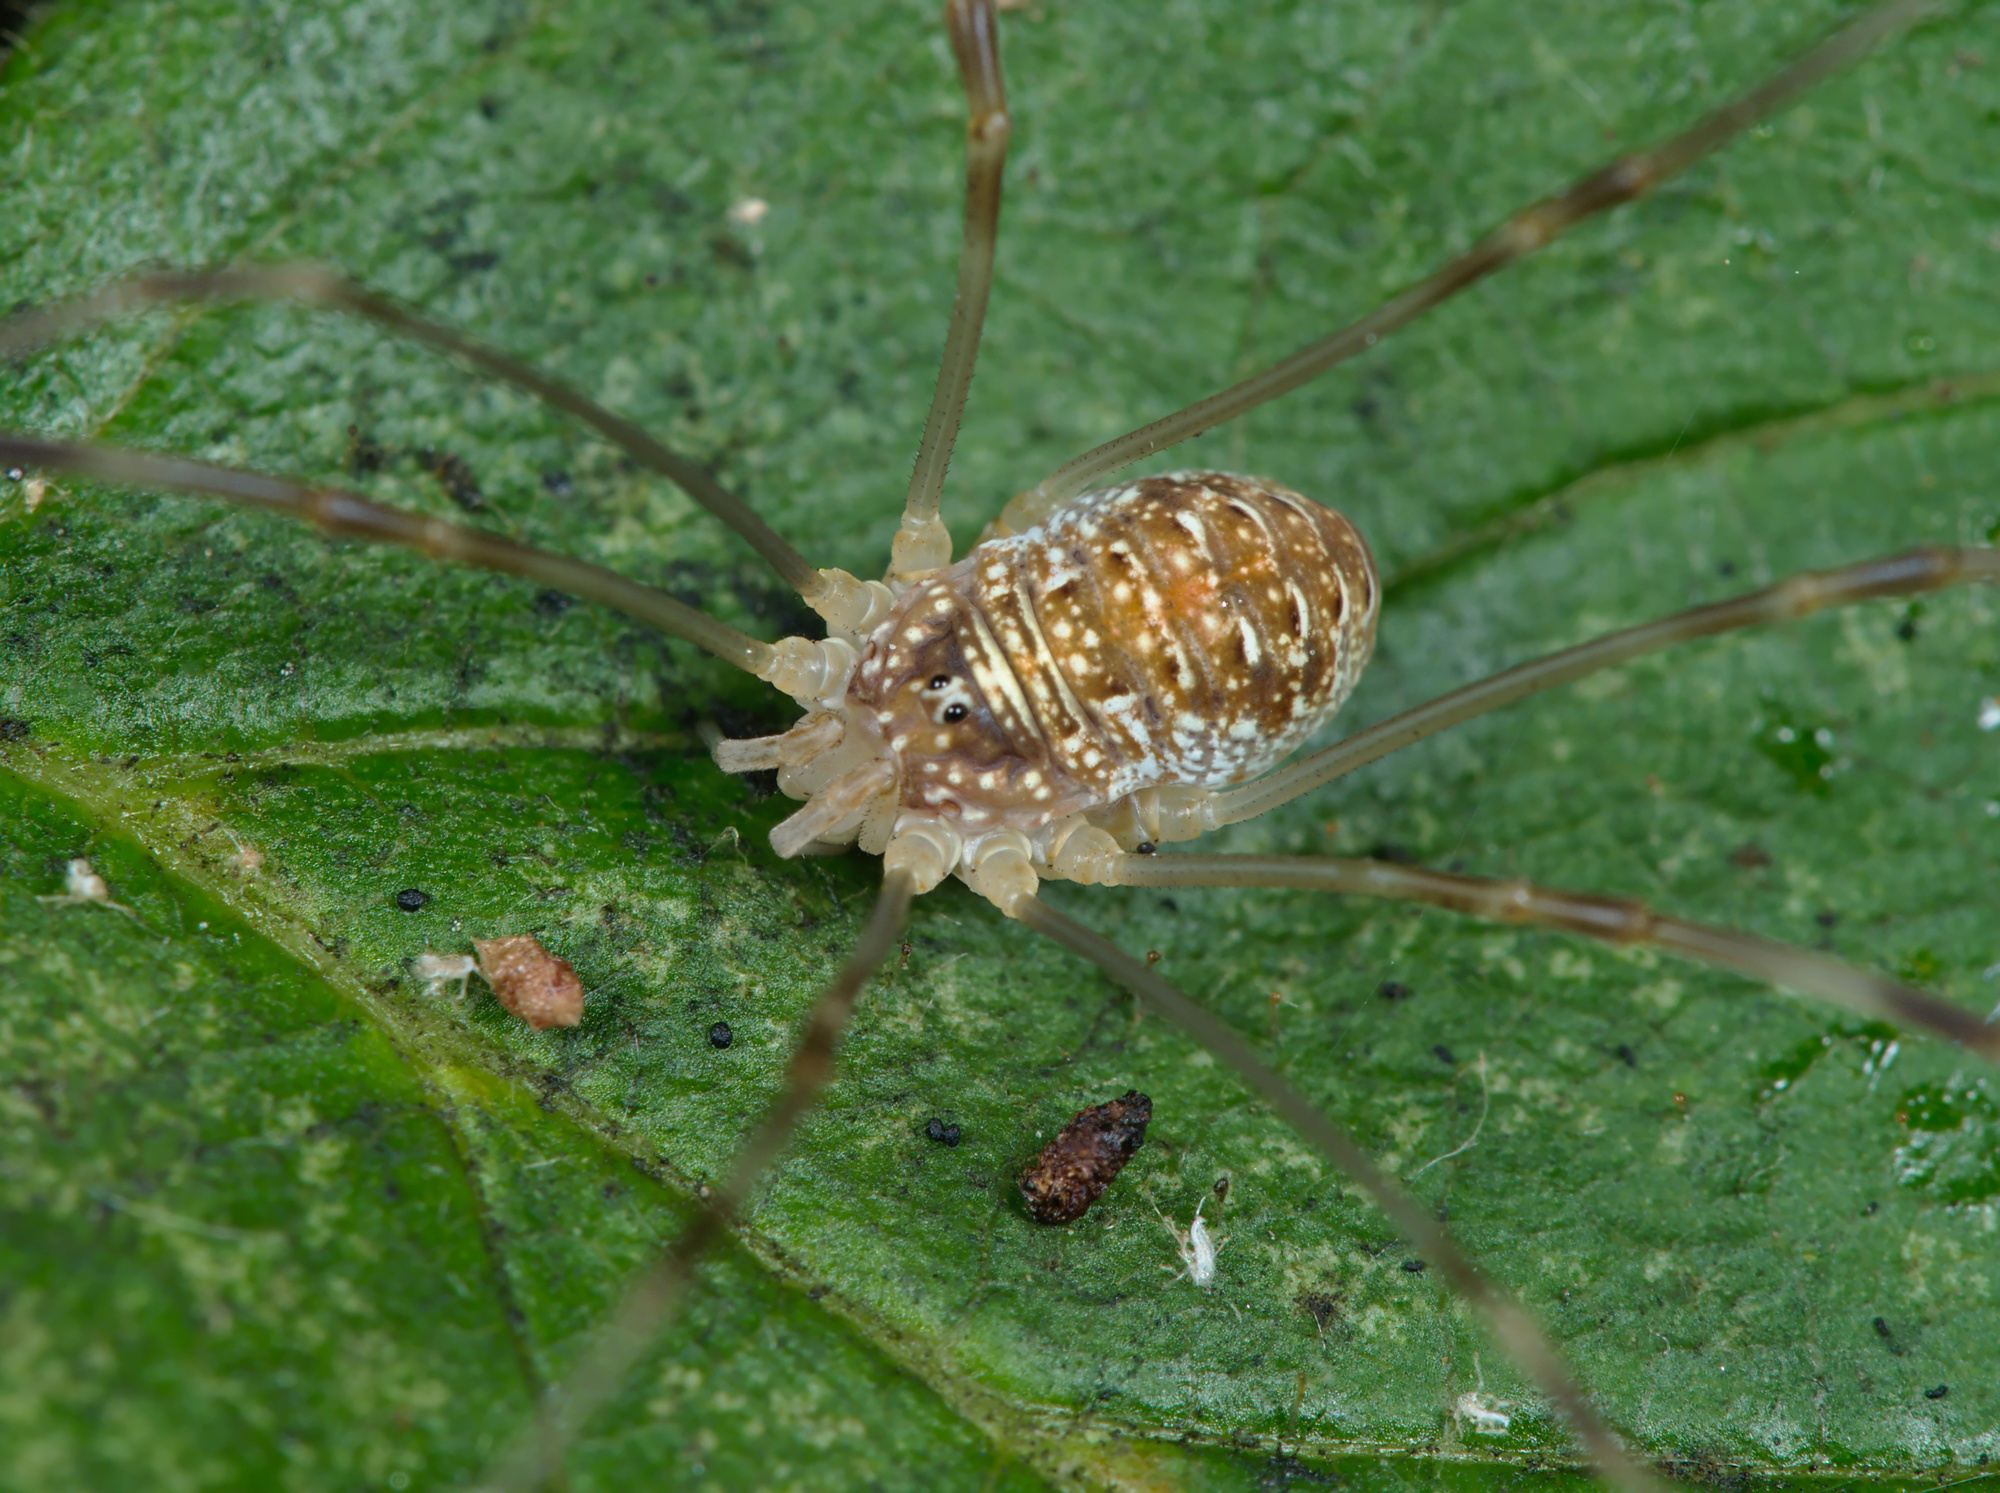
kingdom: Animalia
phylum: Arthropoda
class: Arachnida
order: Opiliones
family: Phalangiidae
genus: Opilio
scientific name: Opilio canestrinii
